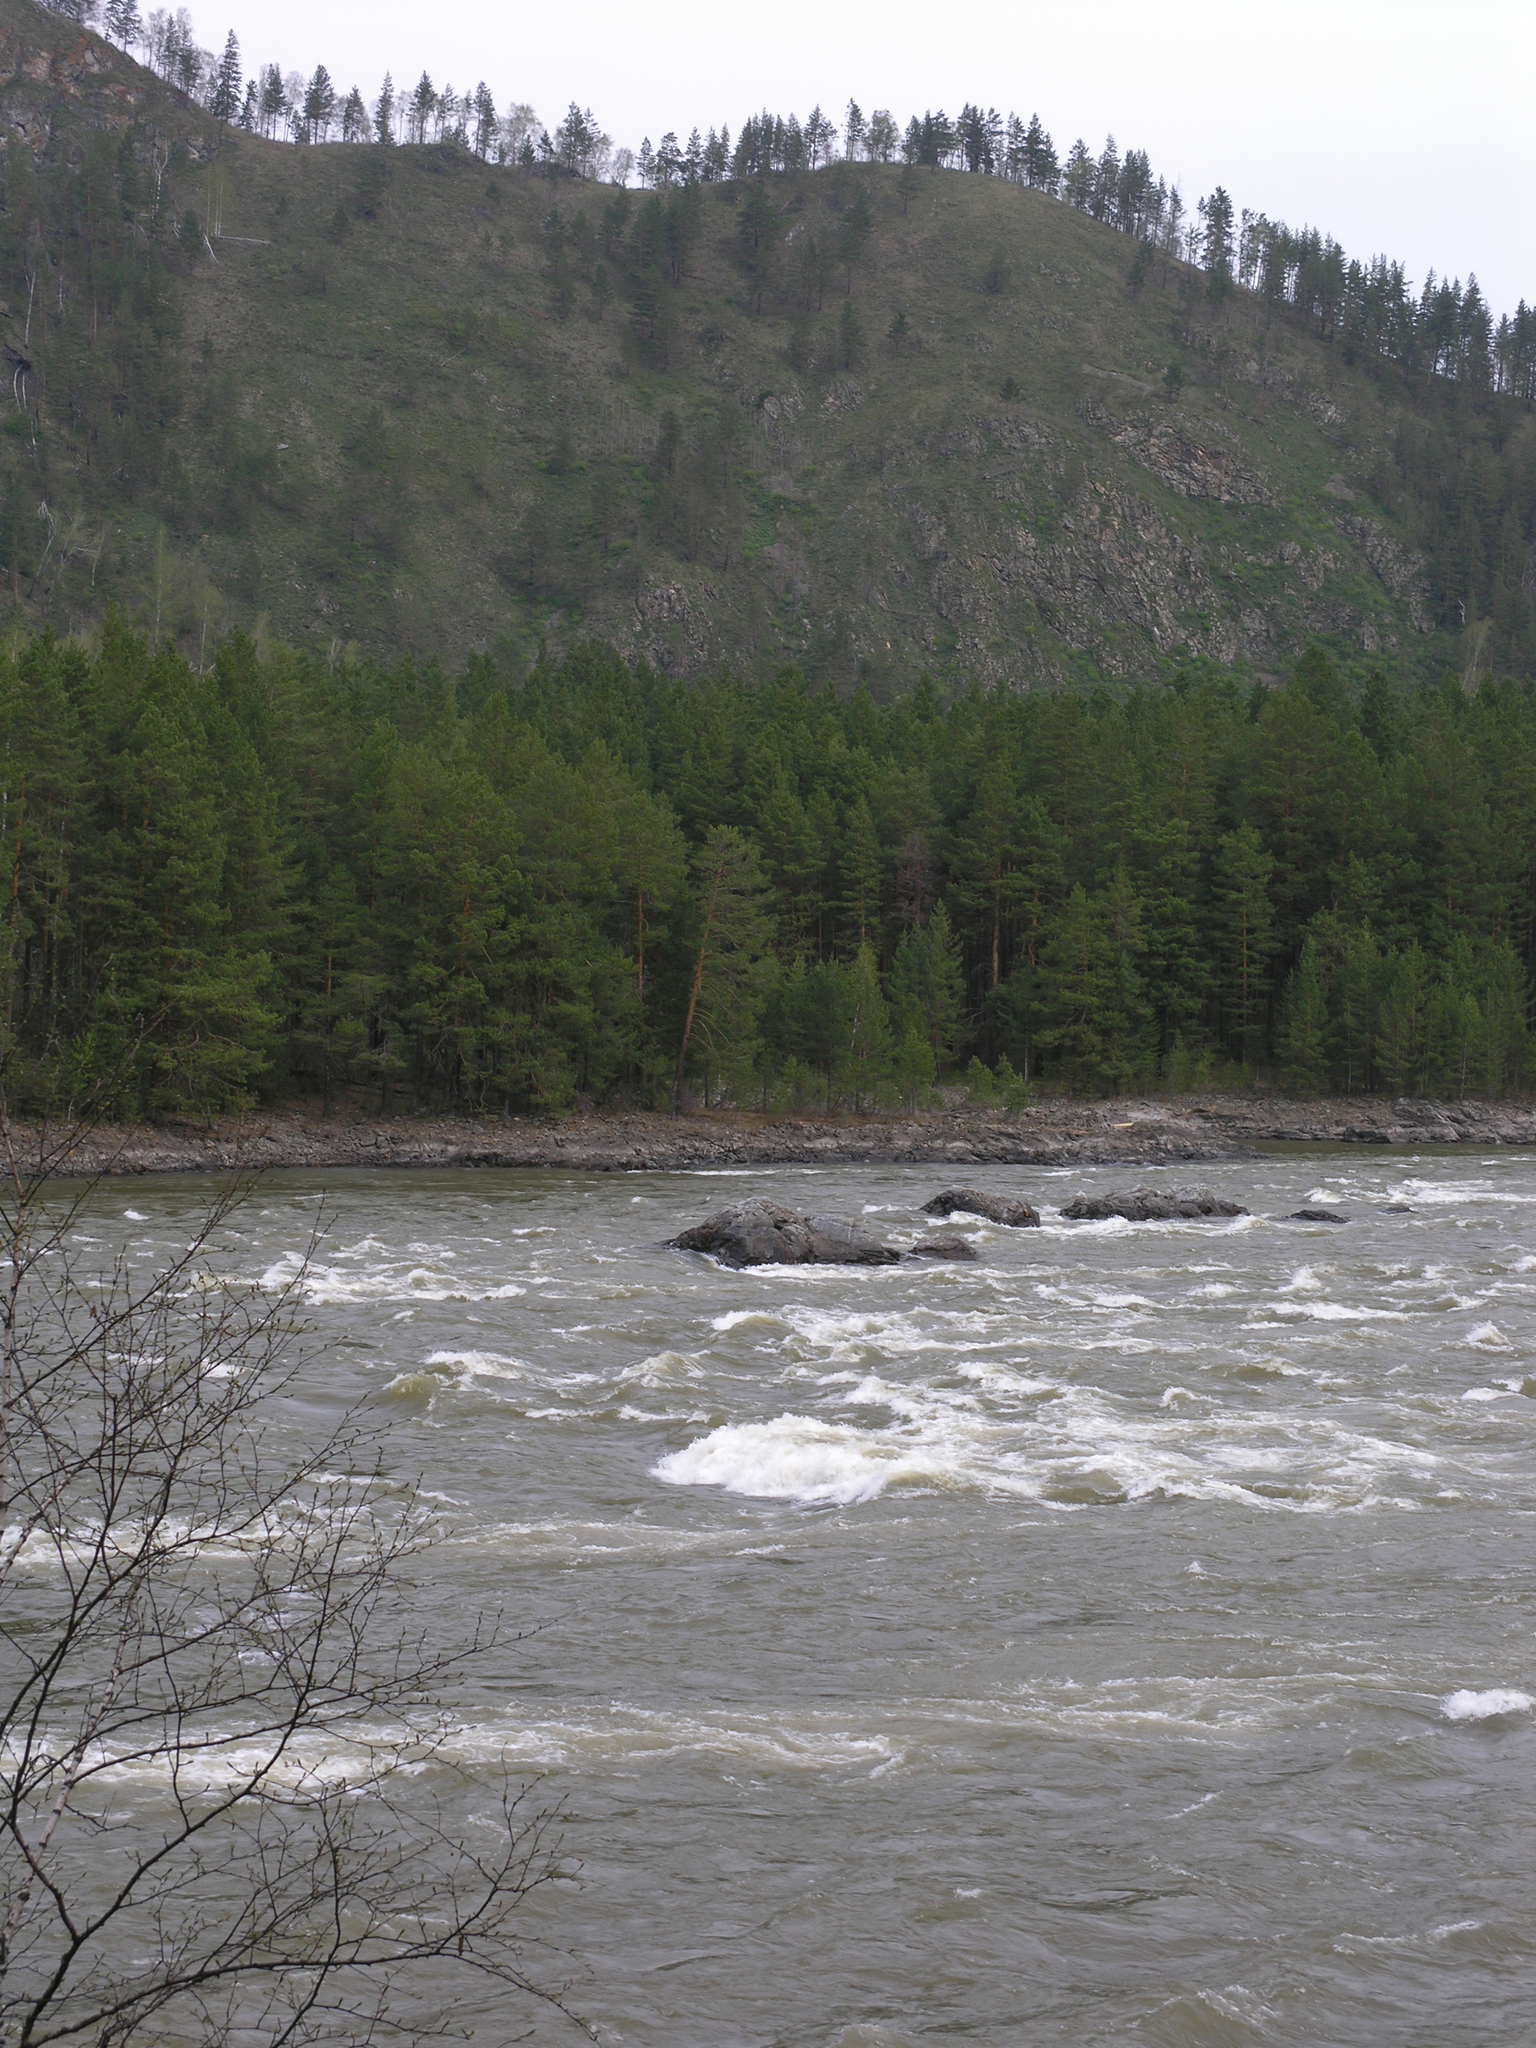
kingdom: Plantae
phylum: Tracheophyta
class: Pinopsida
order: Pinales
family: Pinaceae
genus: Pinus
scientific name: Pinus sylvestris
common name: Scots pine
